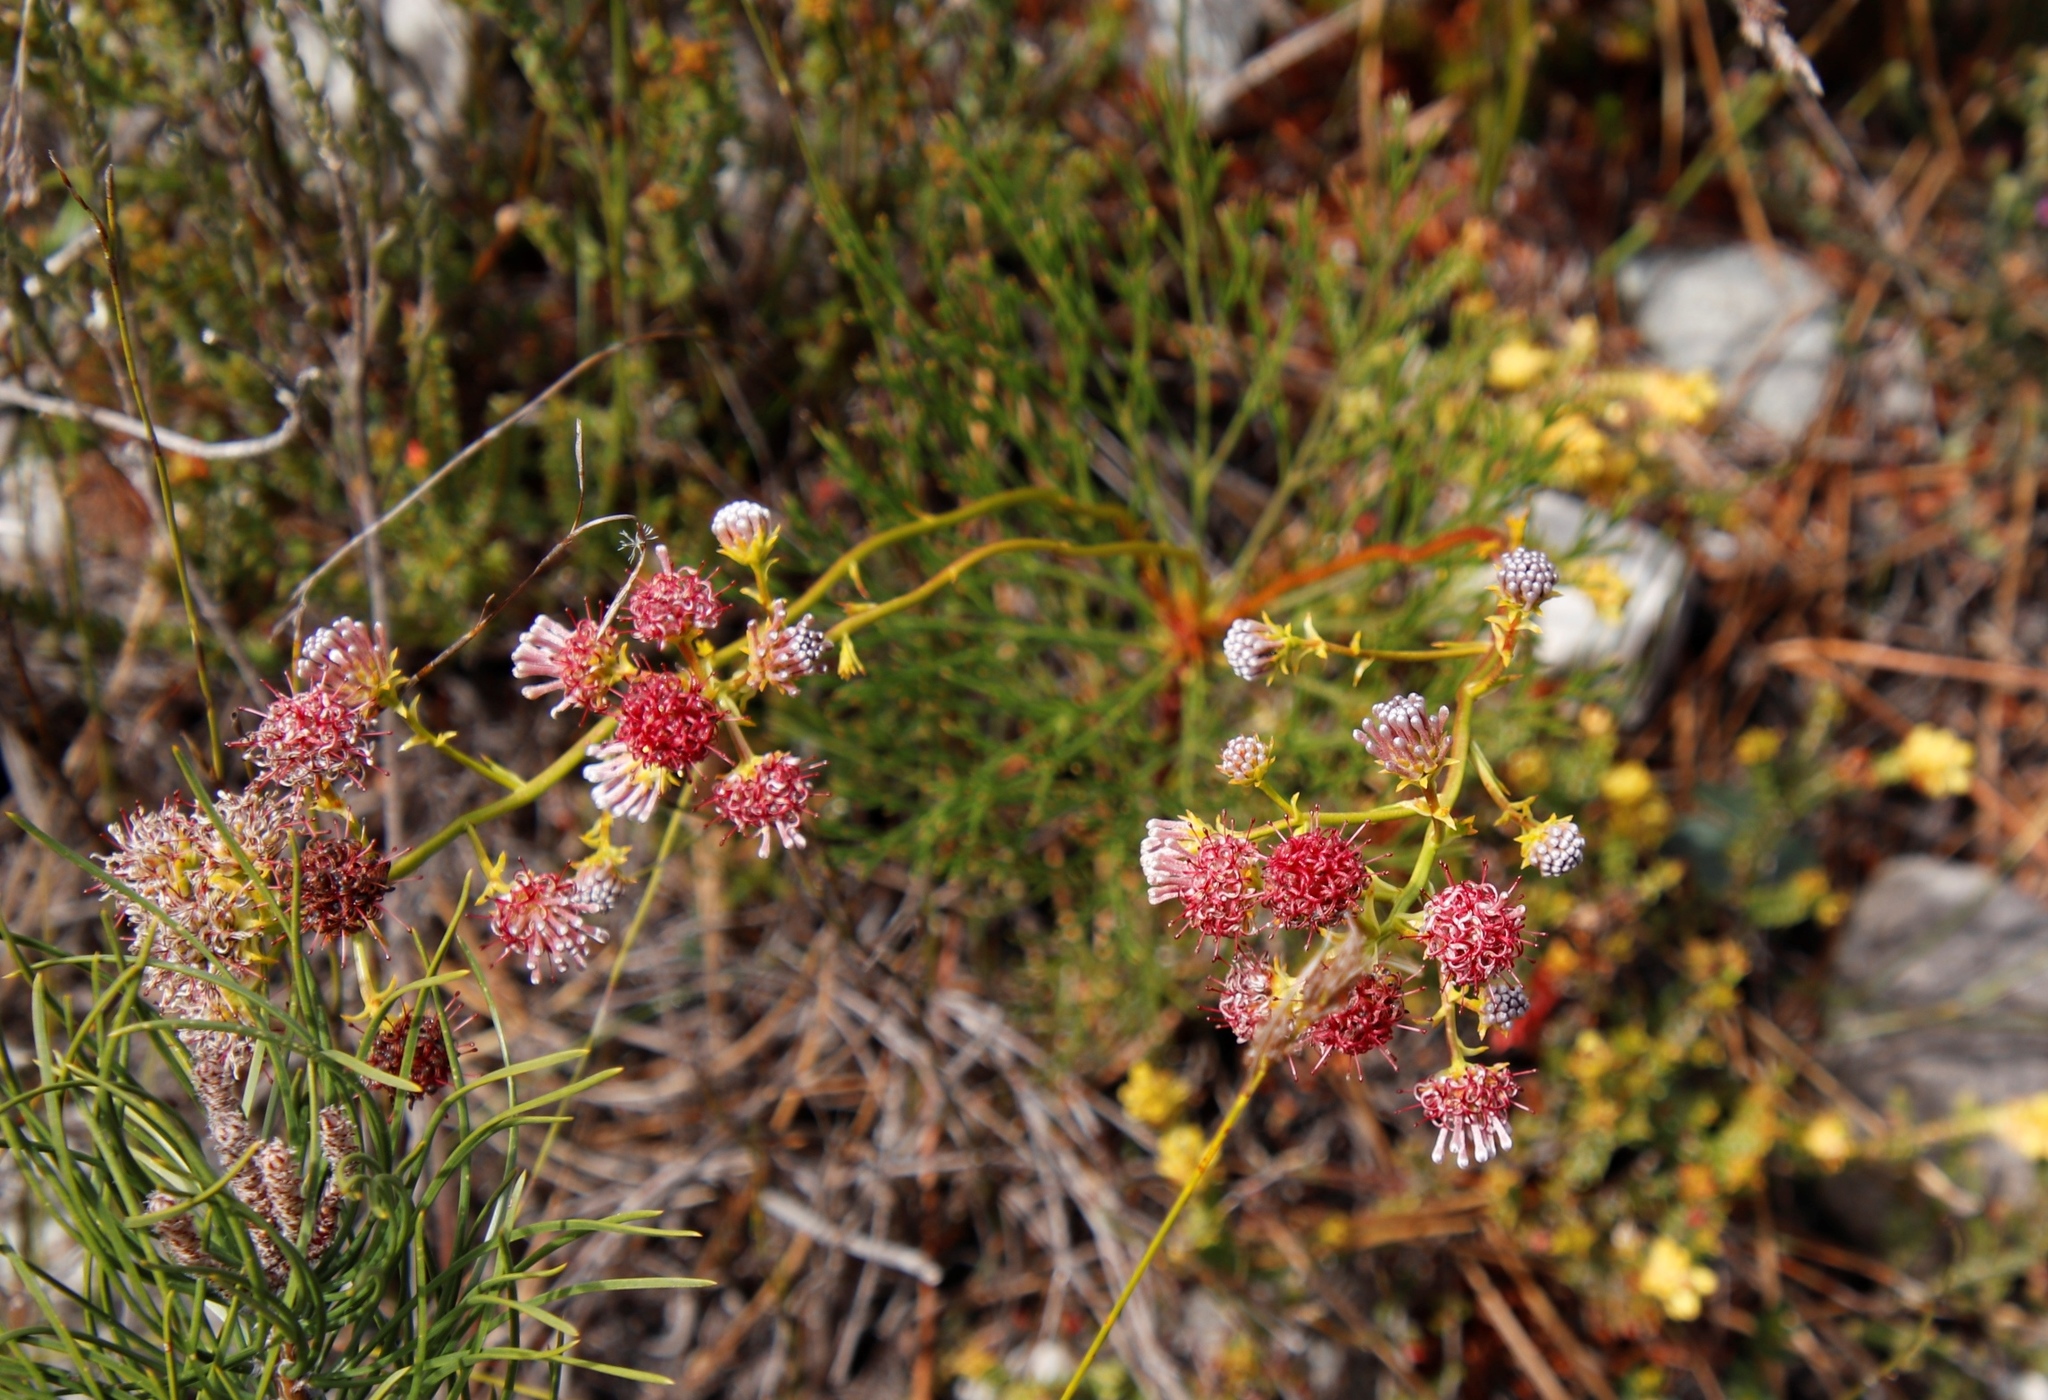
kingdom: Plantae
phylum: Tracheophyta
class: Magnoliopsida
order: Proteales
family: Proteaceae
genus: Serruria
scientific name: Serruria elongata
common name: Long-stalk spiderhead
